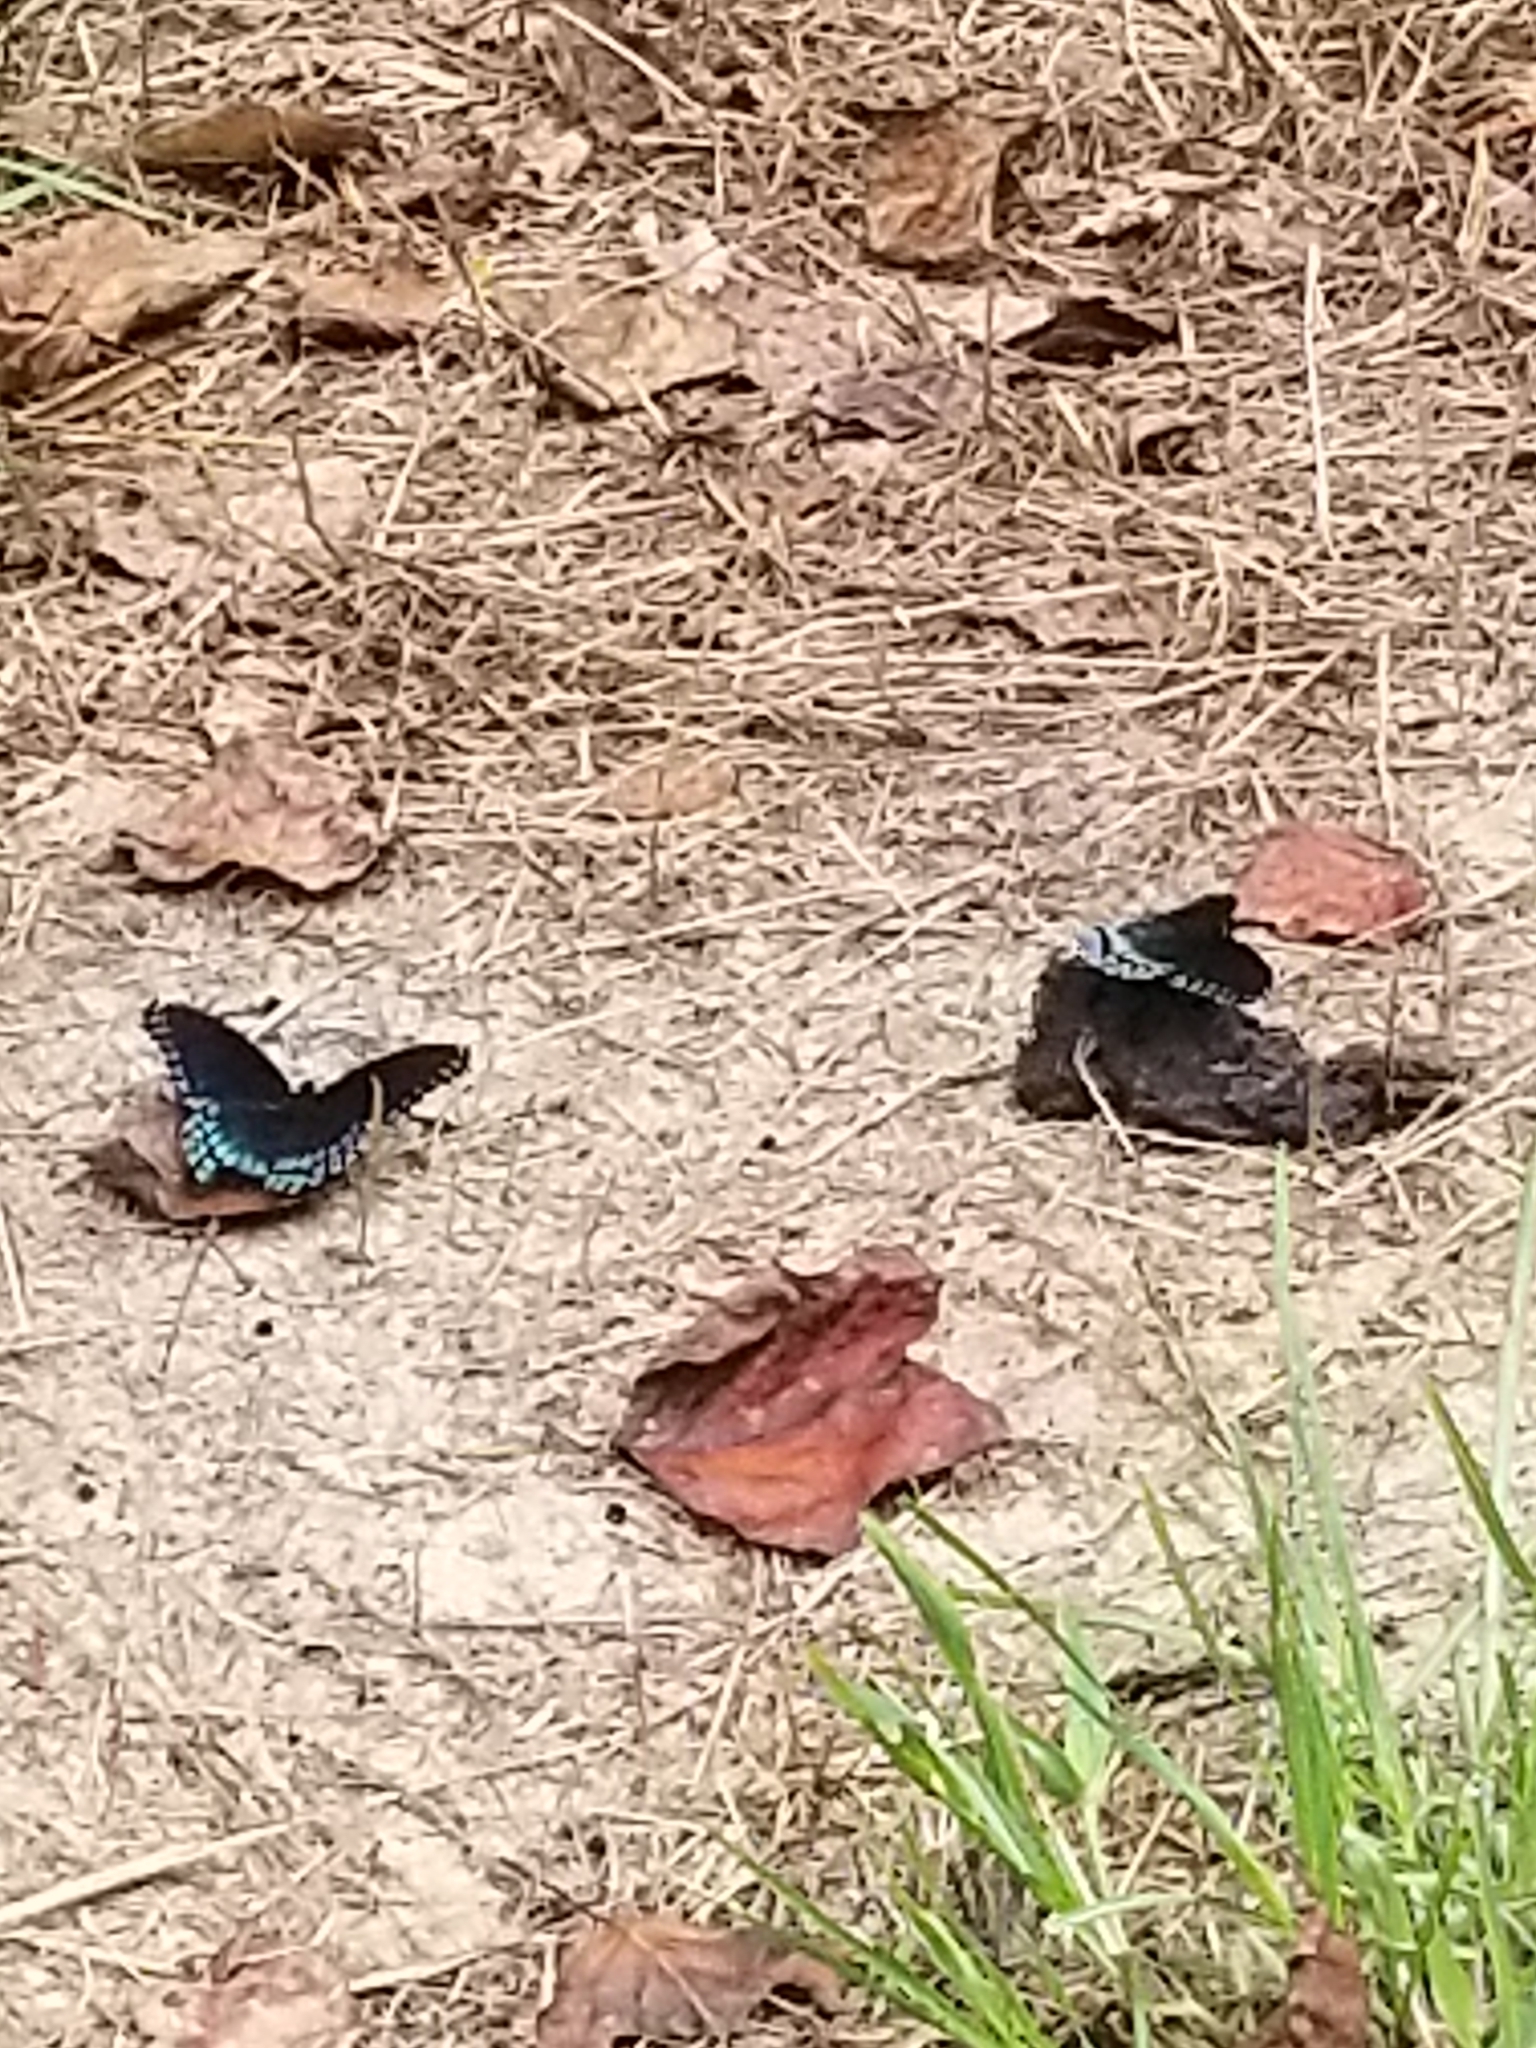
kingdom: Animalia
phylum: Arthropoda
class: Insecta
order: Lepidoptera
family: Nymphalidae
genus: Limenitis
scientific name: Limenitis astyanax
